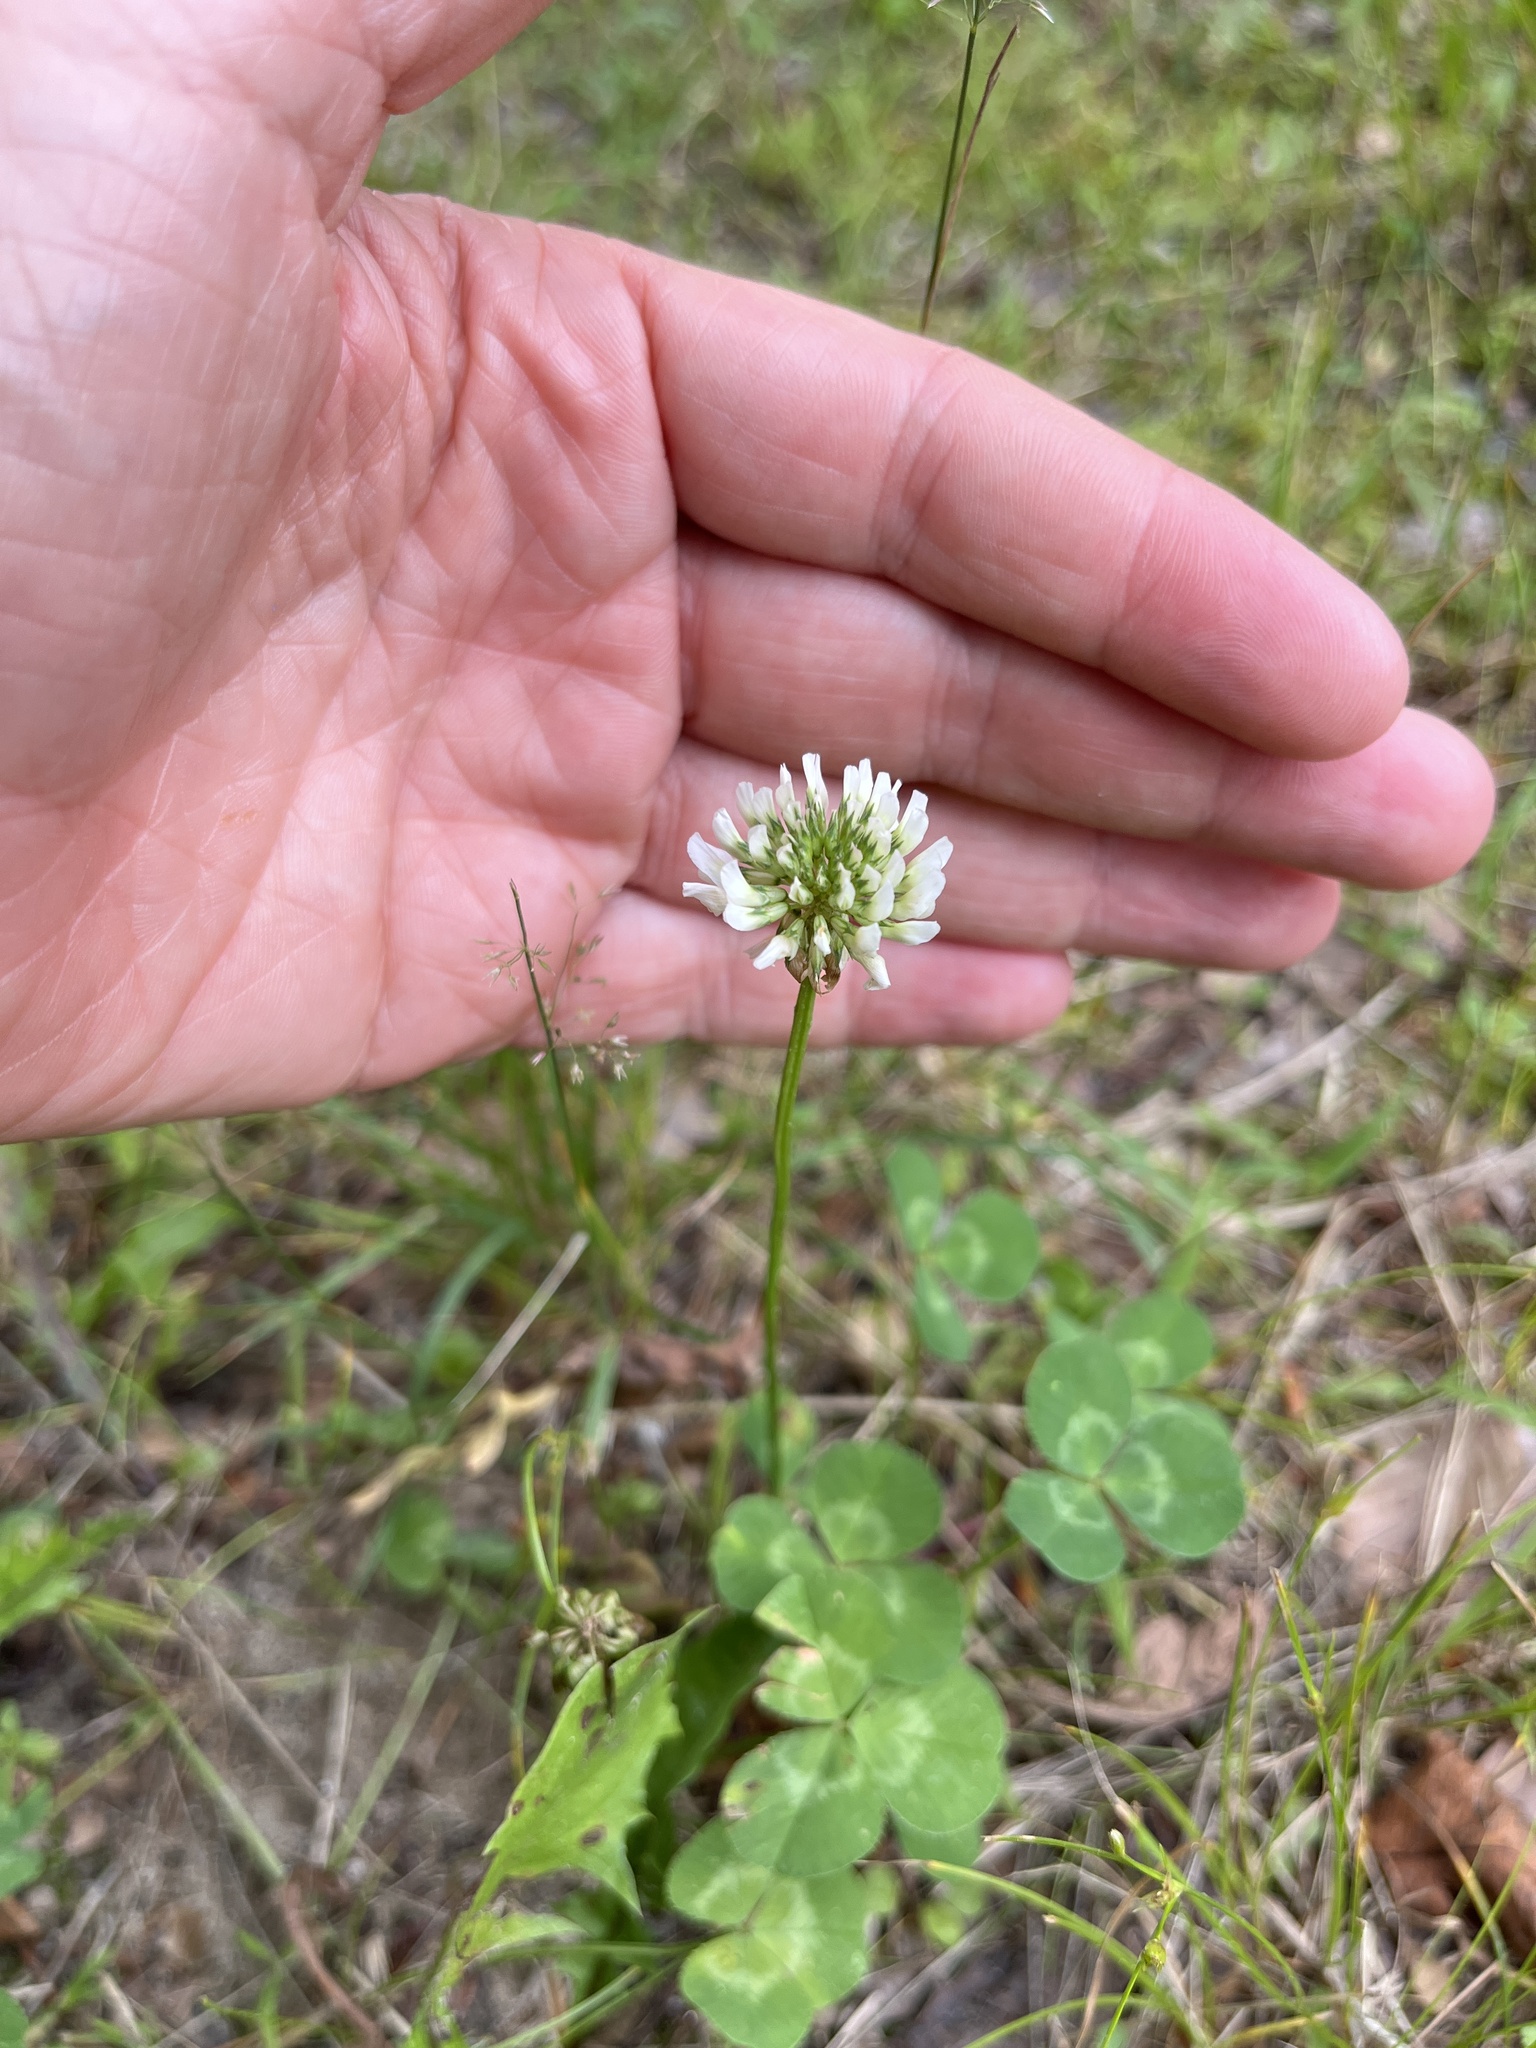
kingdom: Plantae
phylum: Tracheophyta
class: Magnoliopsida
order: Fabales
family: Fabaceae
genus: Trifolium
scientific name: Trifolium repens
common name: White clover
